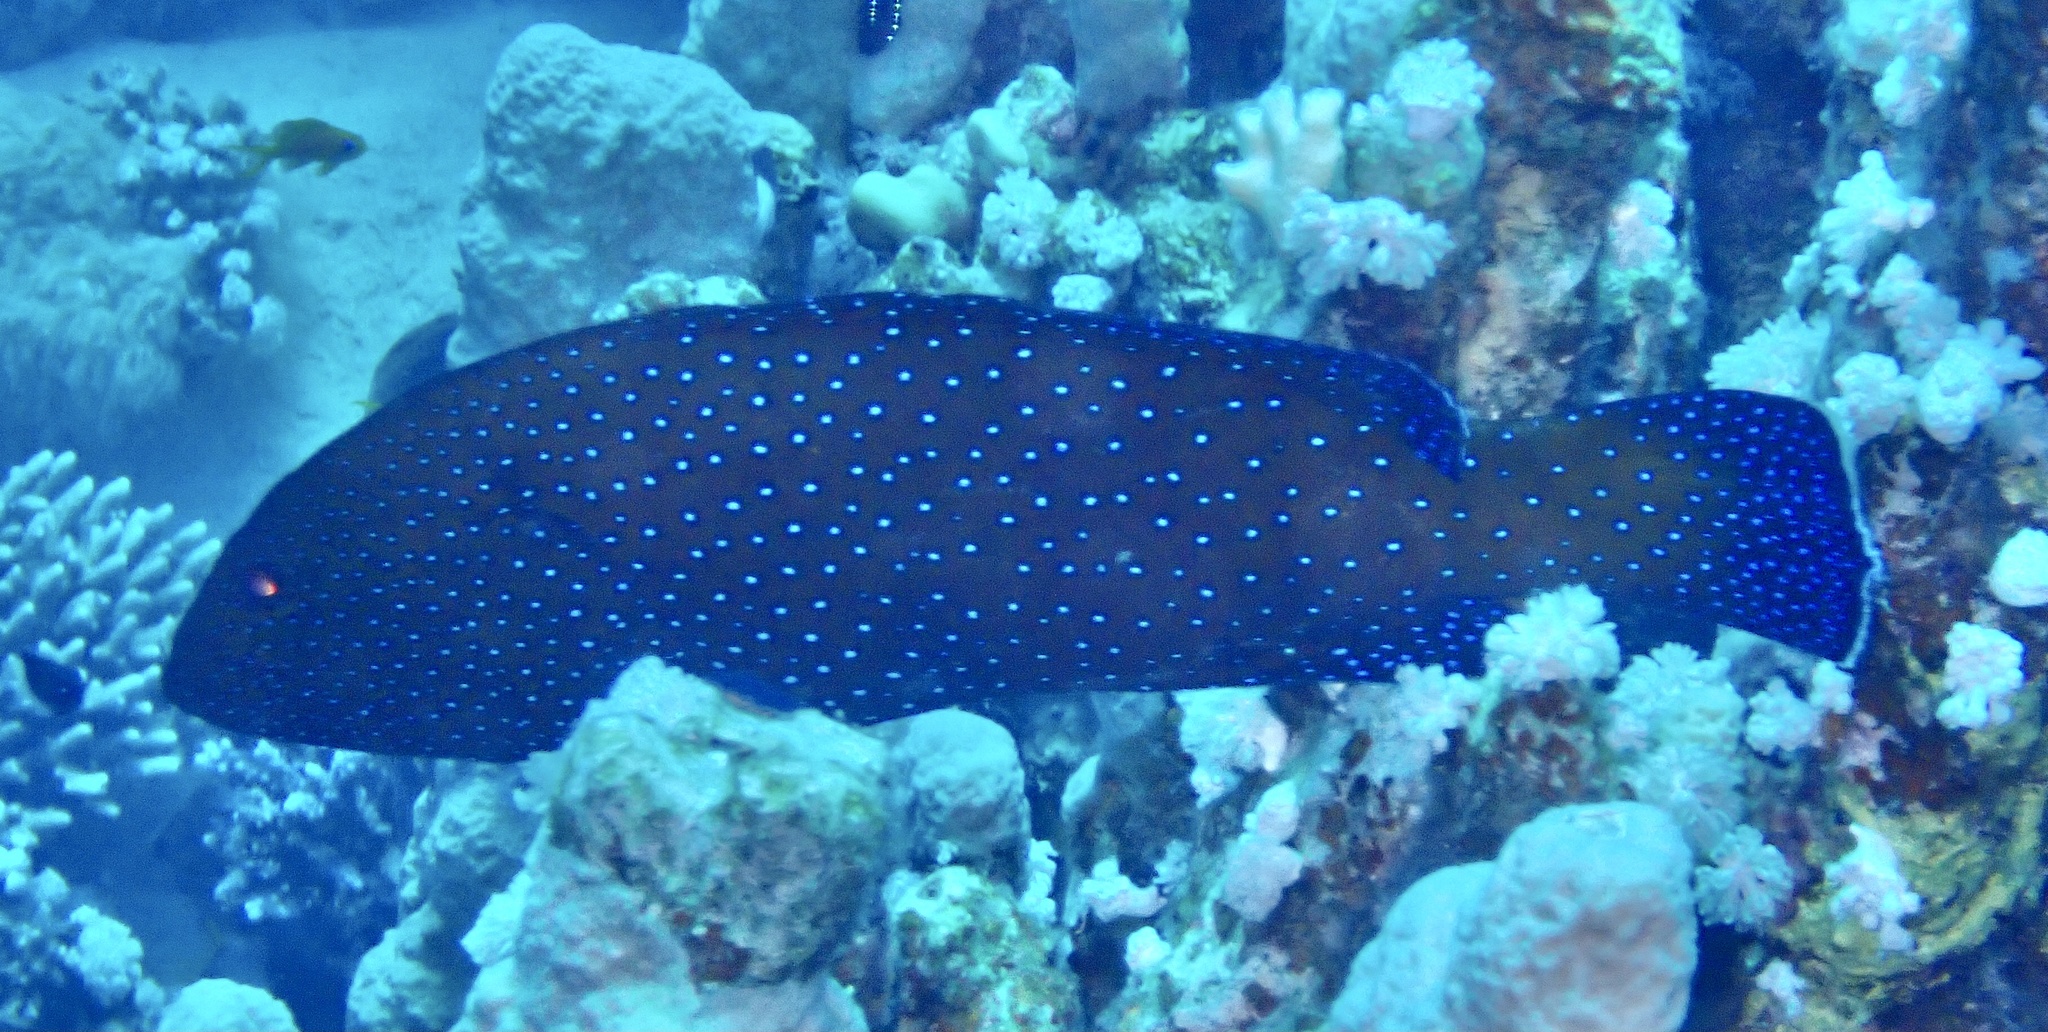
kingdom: Animalia
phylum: Chordata
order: Perciformes
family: Serranidae
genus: Cephalopholis
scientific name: Cephalopholis argus
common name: Peacock grouper
